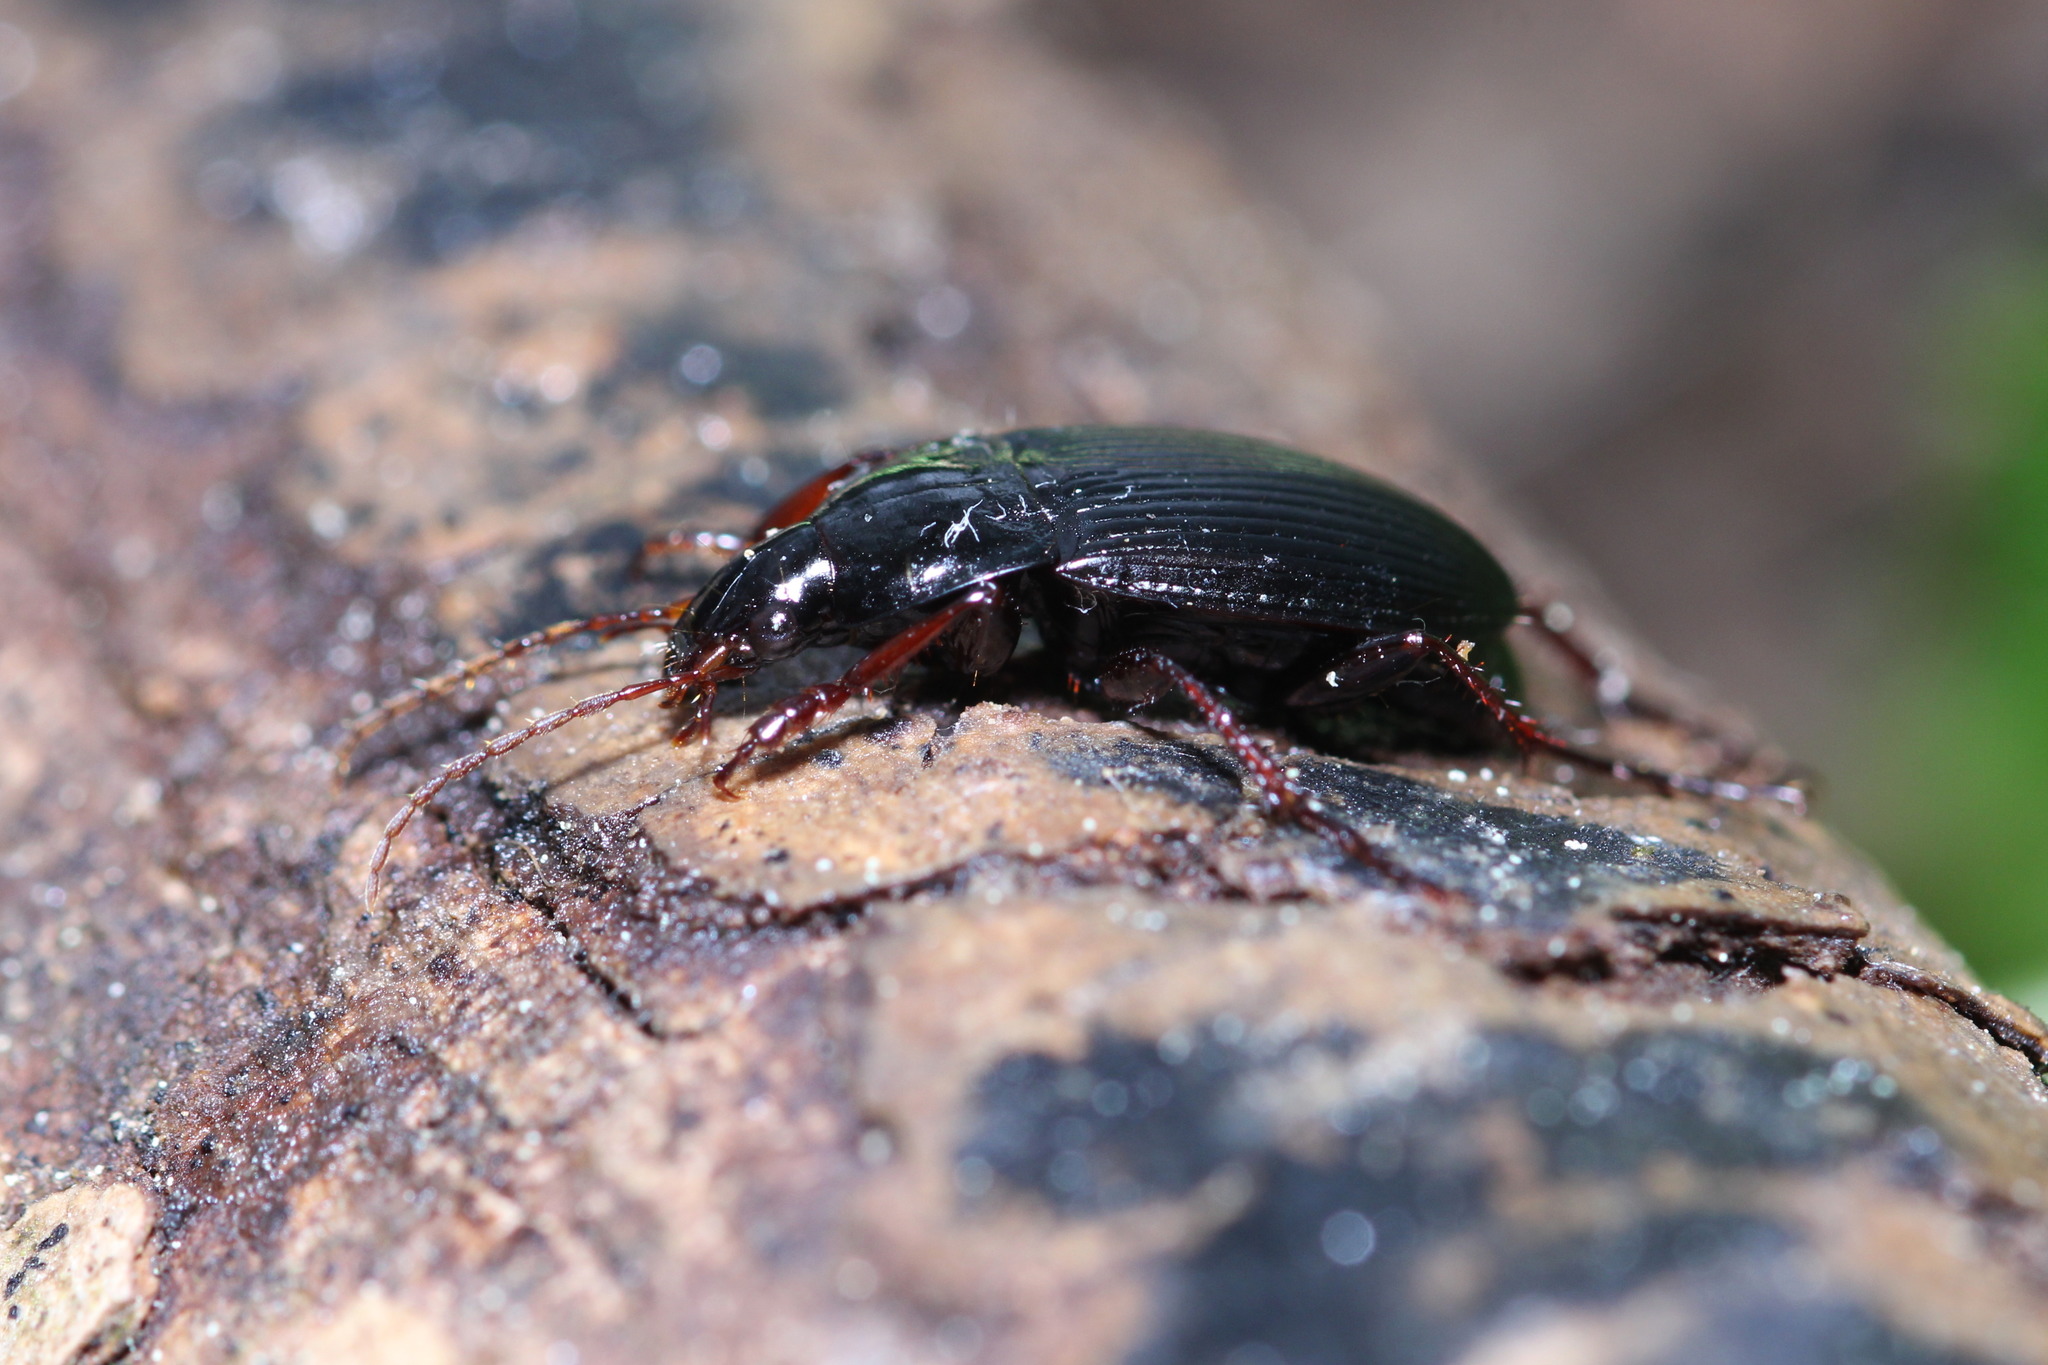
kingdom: Animalia
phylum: Arthropoda
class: Insecta
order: Coleoptera
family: Carabidae
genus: Calathus
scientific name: Calathus fuscipes
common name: Dark-footed harp ground beetle
